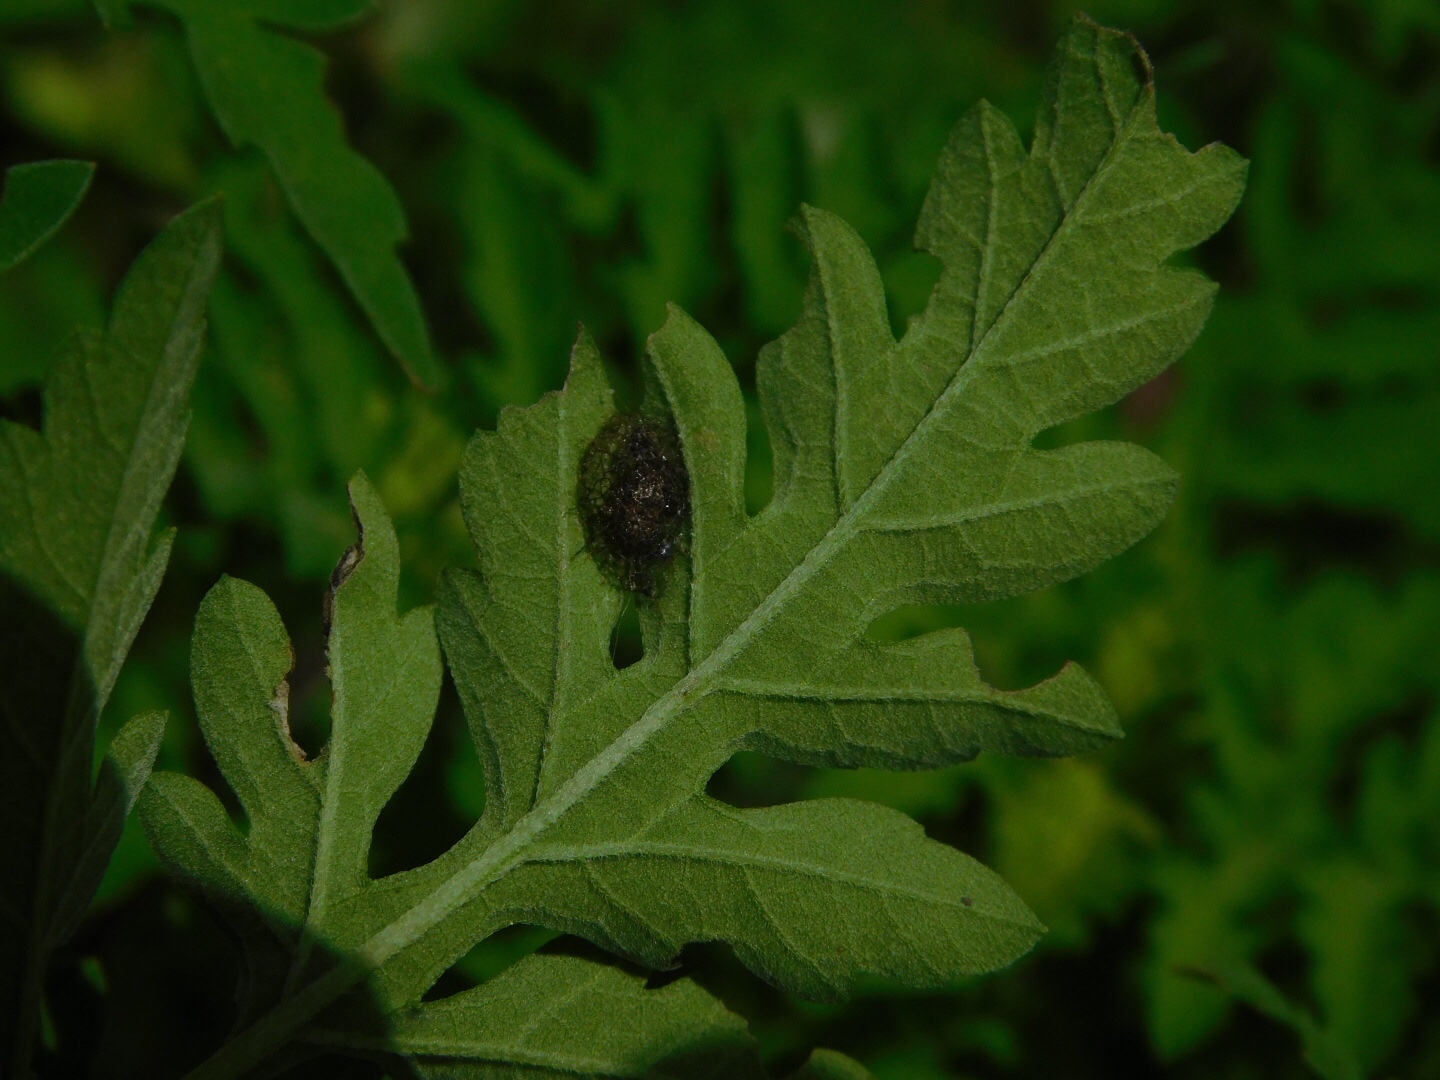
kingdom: Animalia
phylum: Arthropoda
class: Insecta
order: Coleoptera
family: Chrysomelidae
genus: Ophraella
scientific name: Ophraella slobodkini
